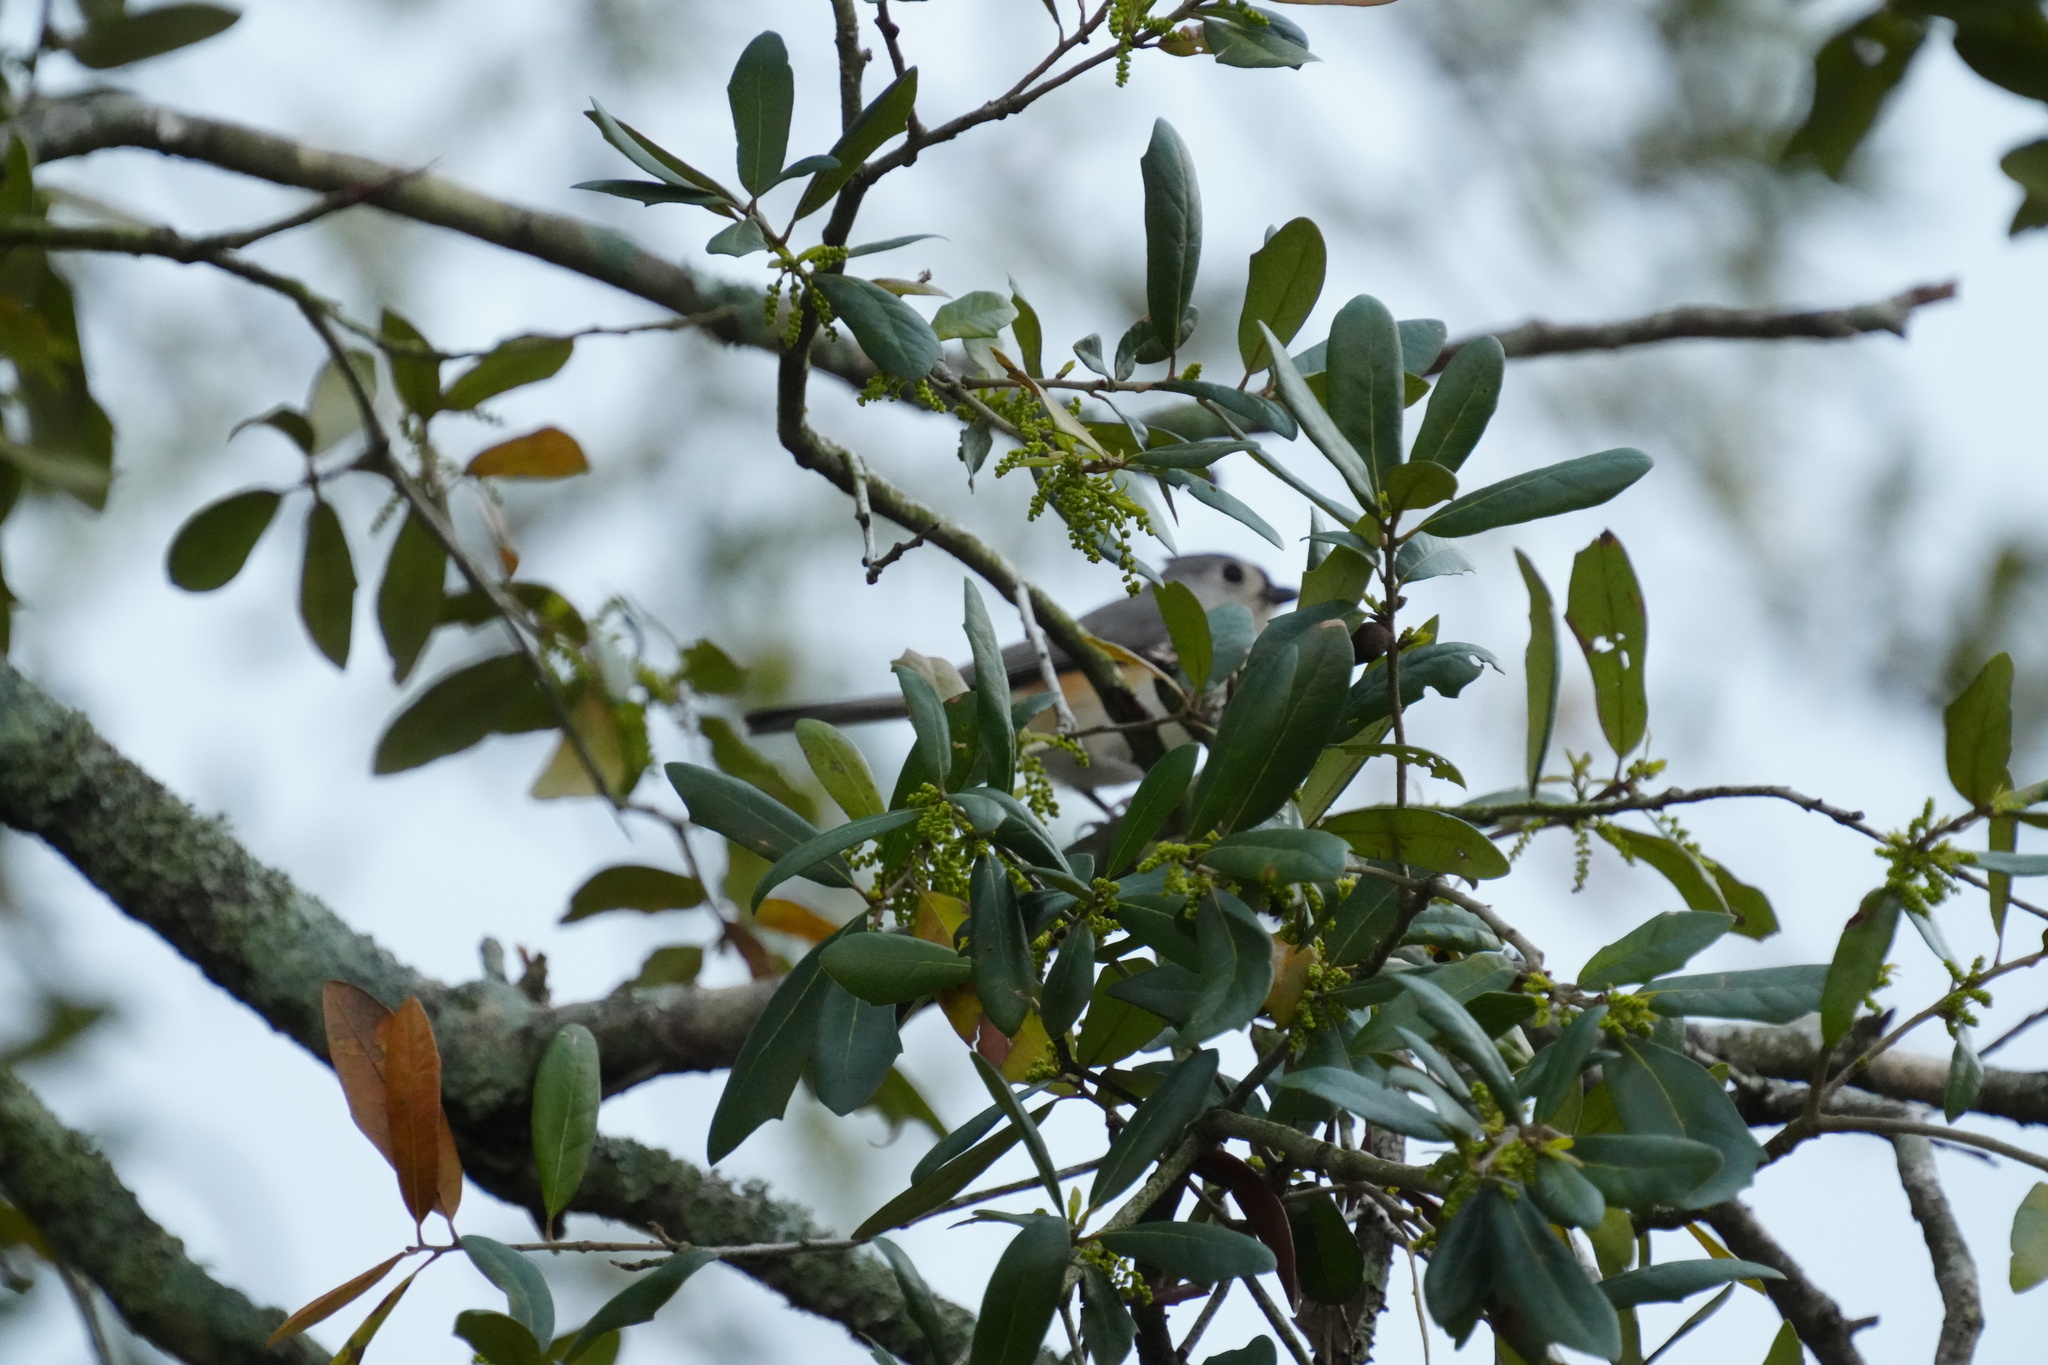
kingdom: Animalia
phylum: Chordata
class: Aves
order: Passeriformes
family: Paridae
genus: Baeolophus
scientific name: Baeolophus bicolor
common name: Tufted titmouse
